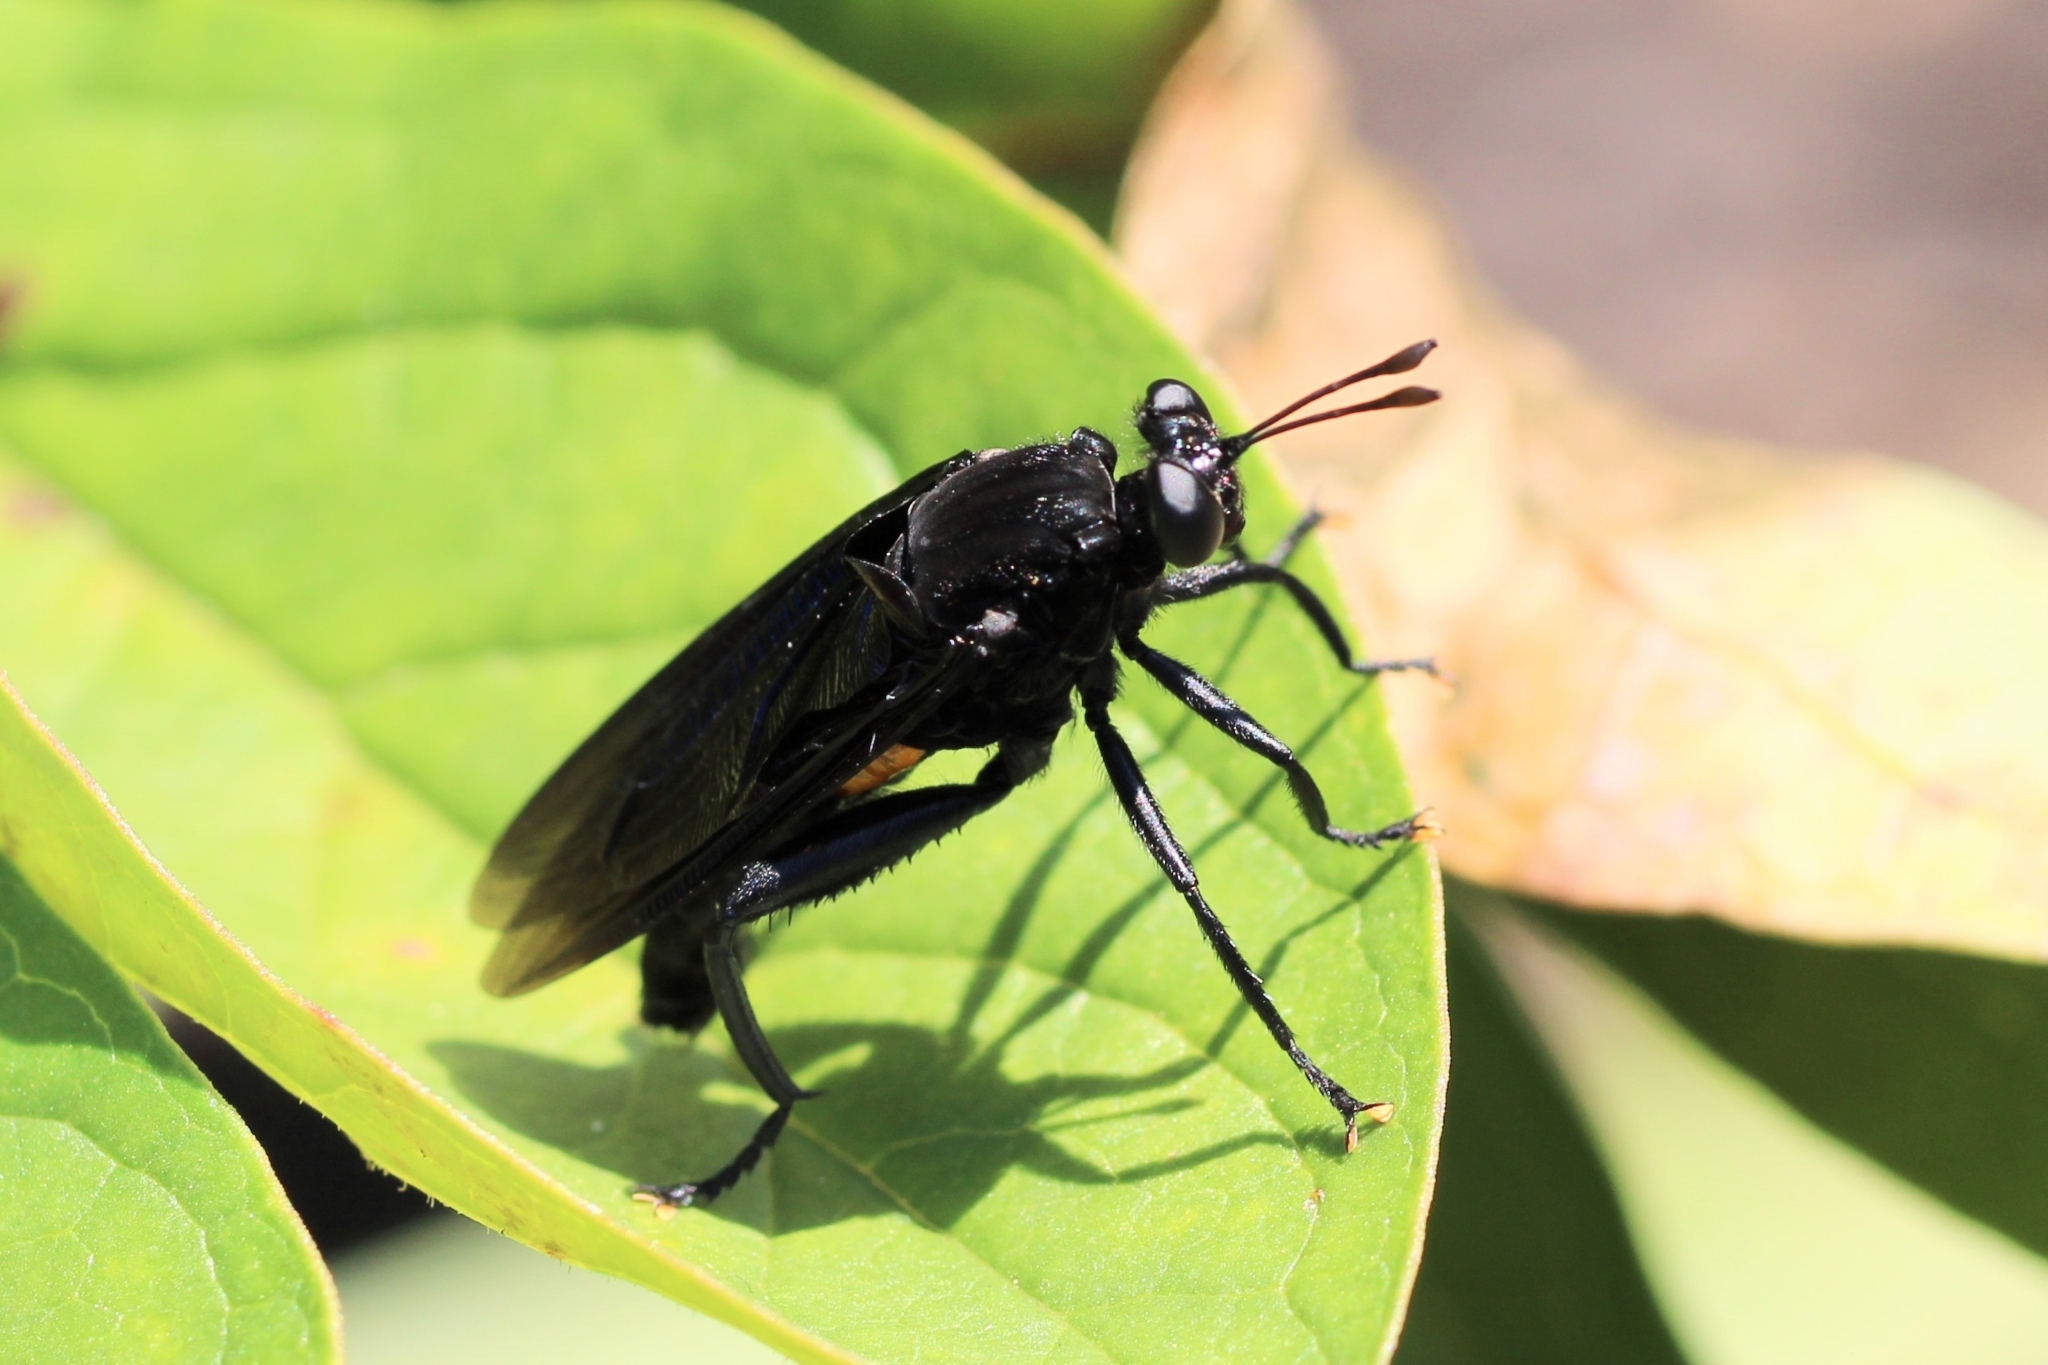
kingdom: Animalia
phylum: Arthropoda
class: Insecta
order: Diptera
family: Mydidae
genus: Mydas
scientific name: Mydas clavatus
